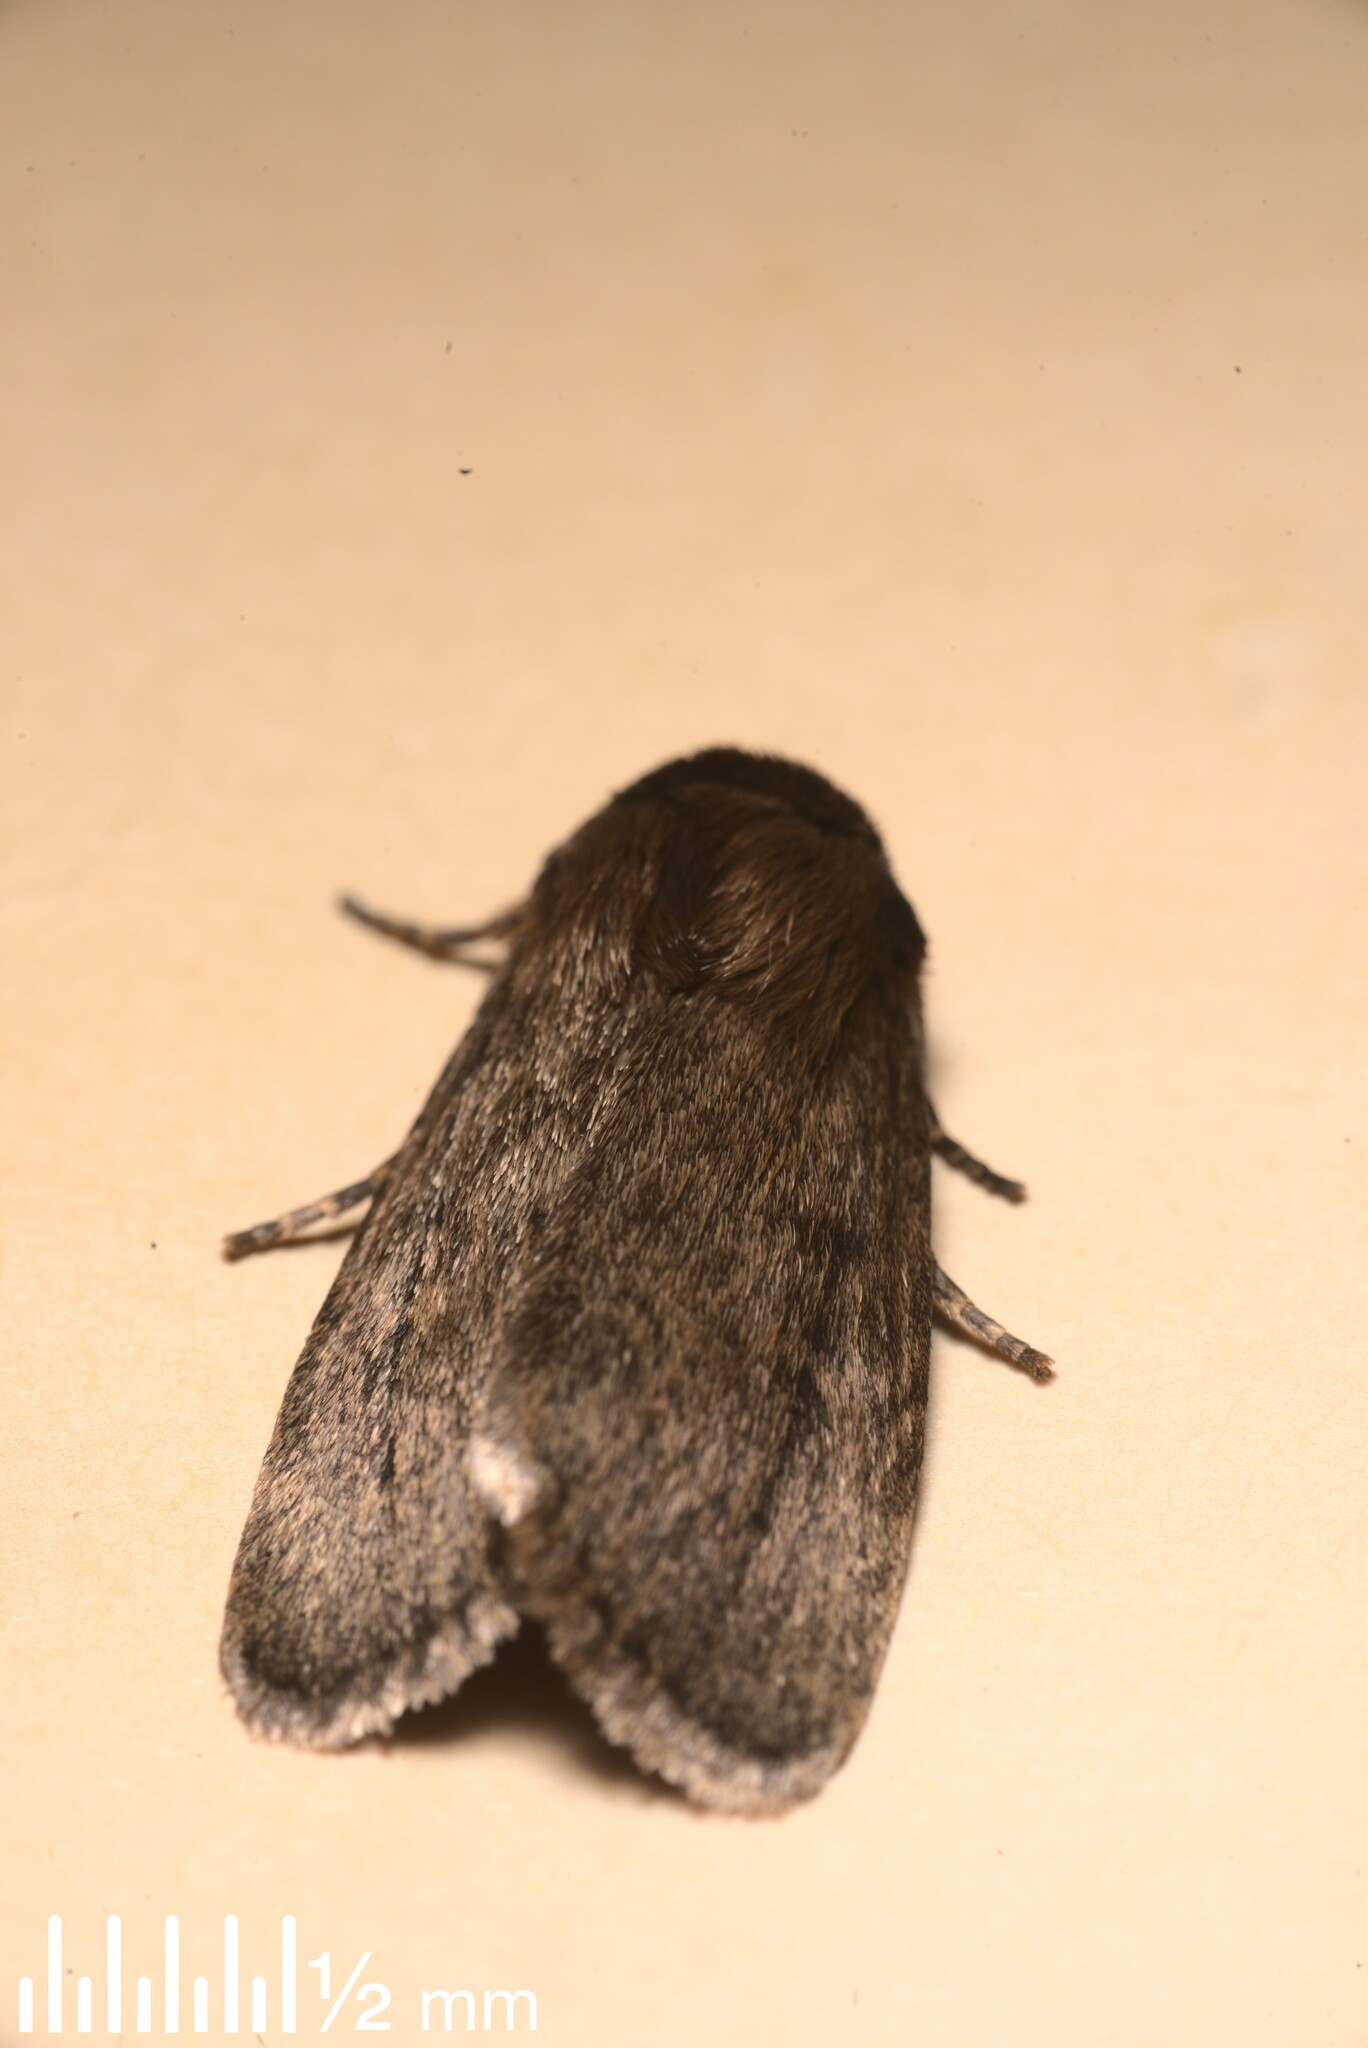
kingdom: Animalia
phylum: Arthropoda
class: Insecta
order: Lepidoptera
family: Noctuidae
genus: Bityla
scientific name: Bityla defigurata
